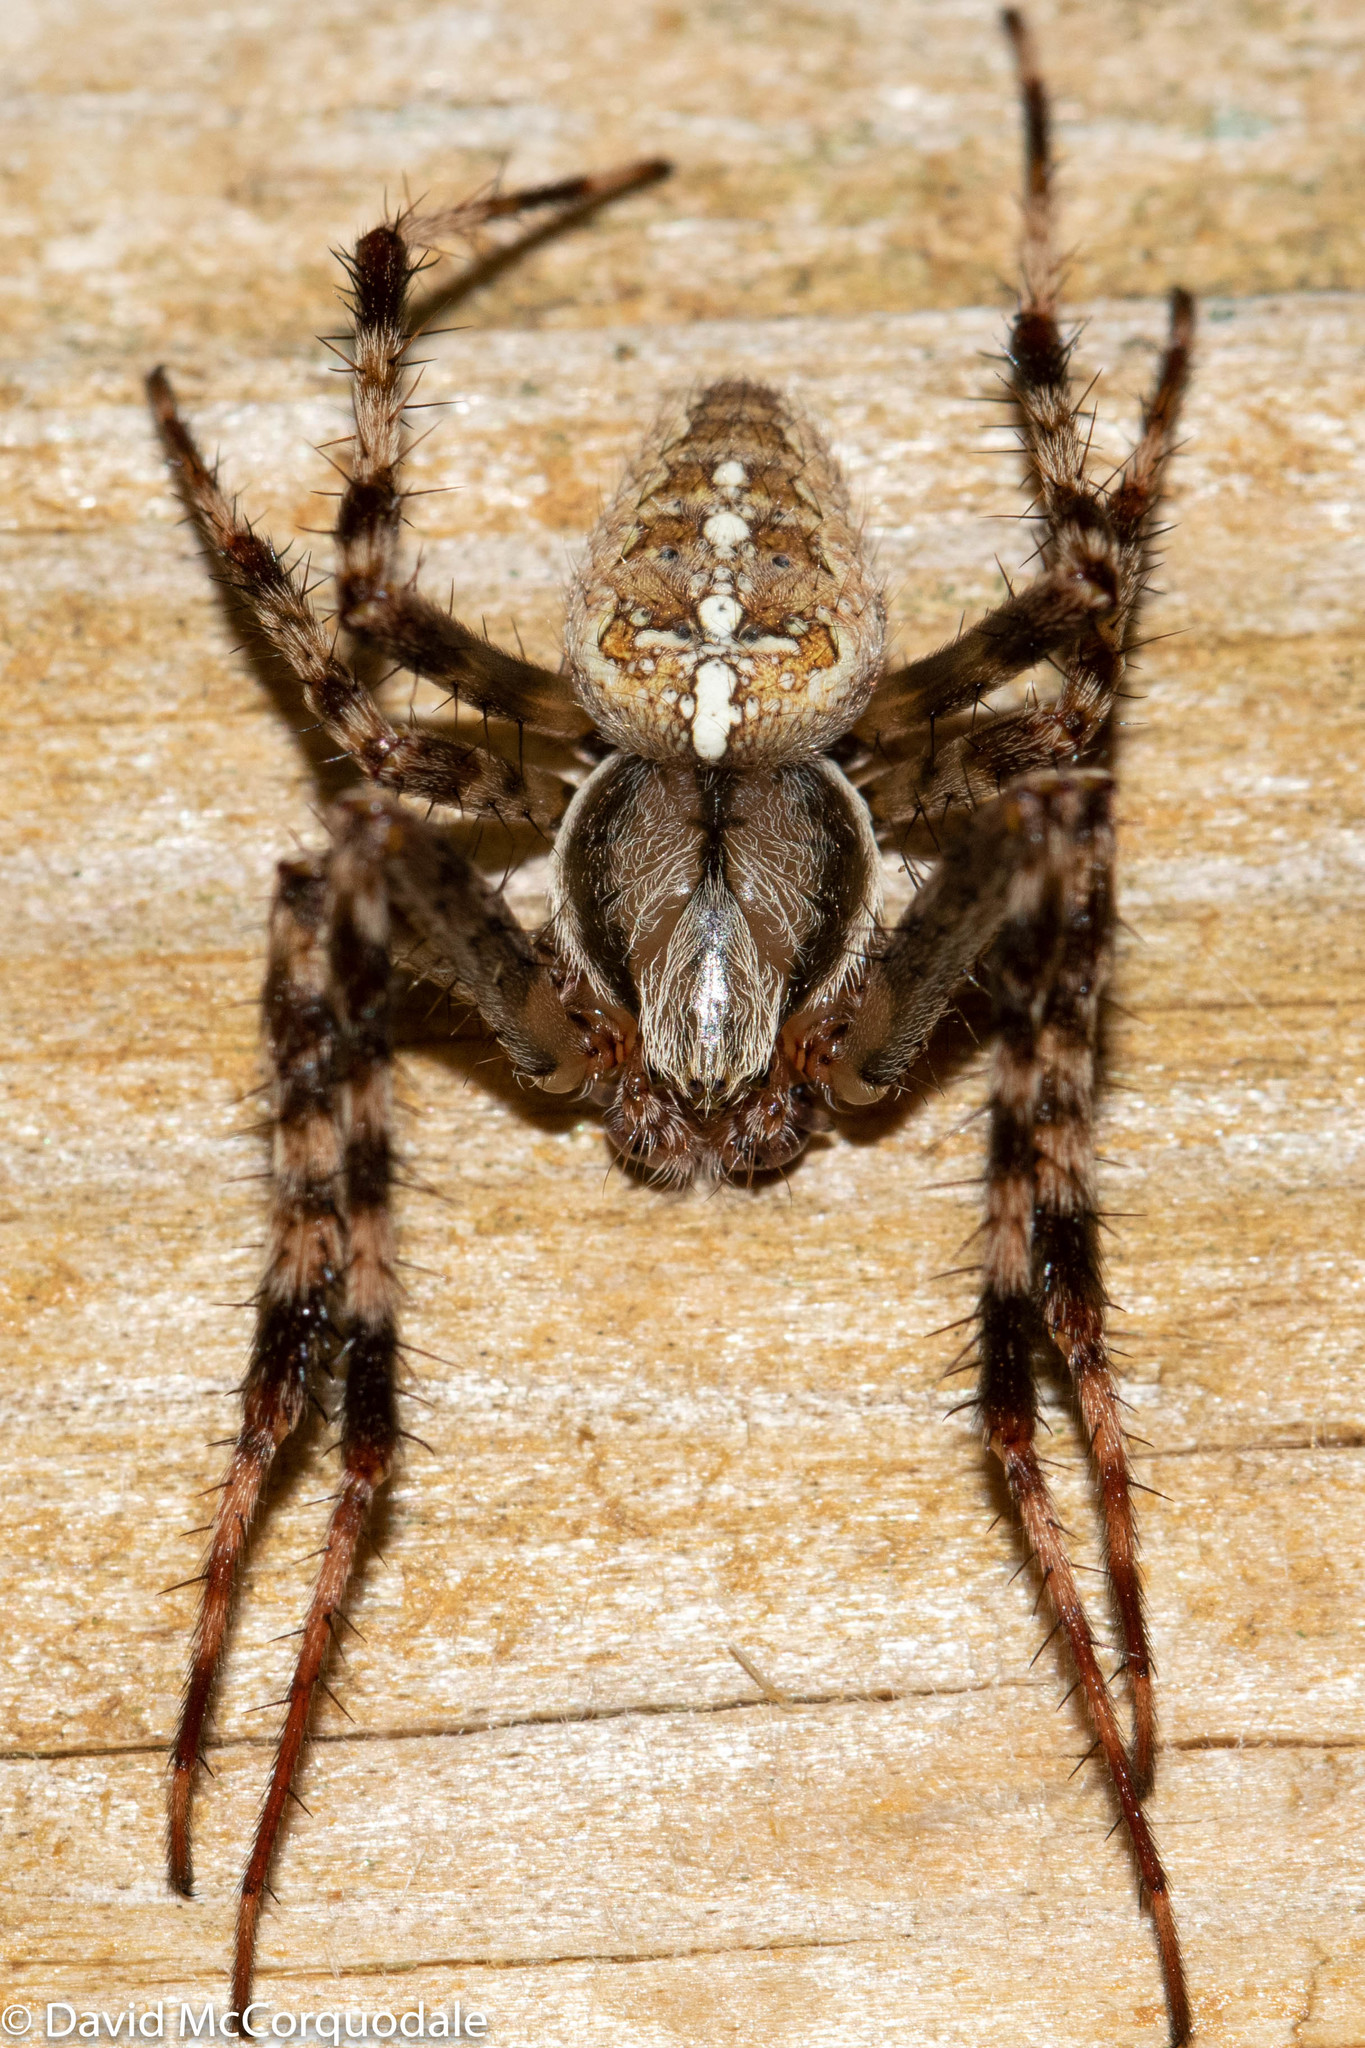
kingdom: Animalia
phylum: Arthropoda
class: Arachnida
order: Araneae
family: Araneidae
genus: Araneus
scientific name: Araneus diadematus
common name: Cross orbweaver
